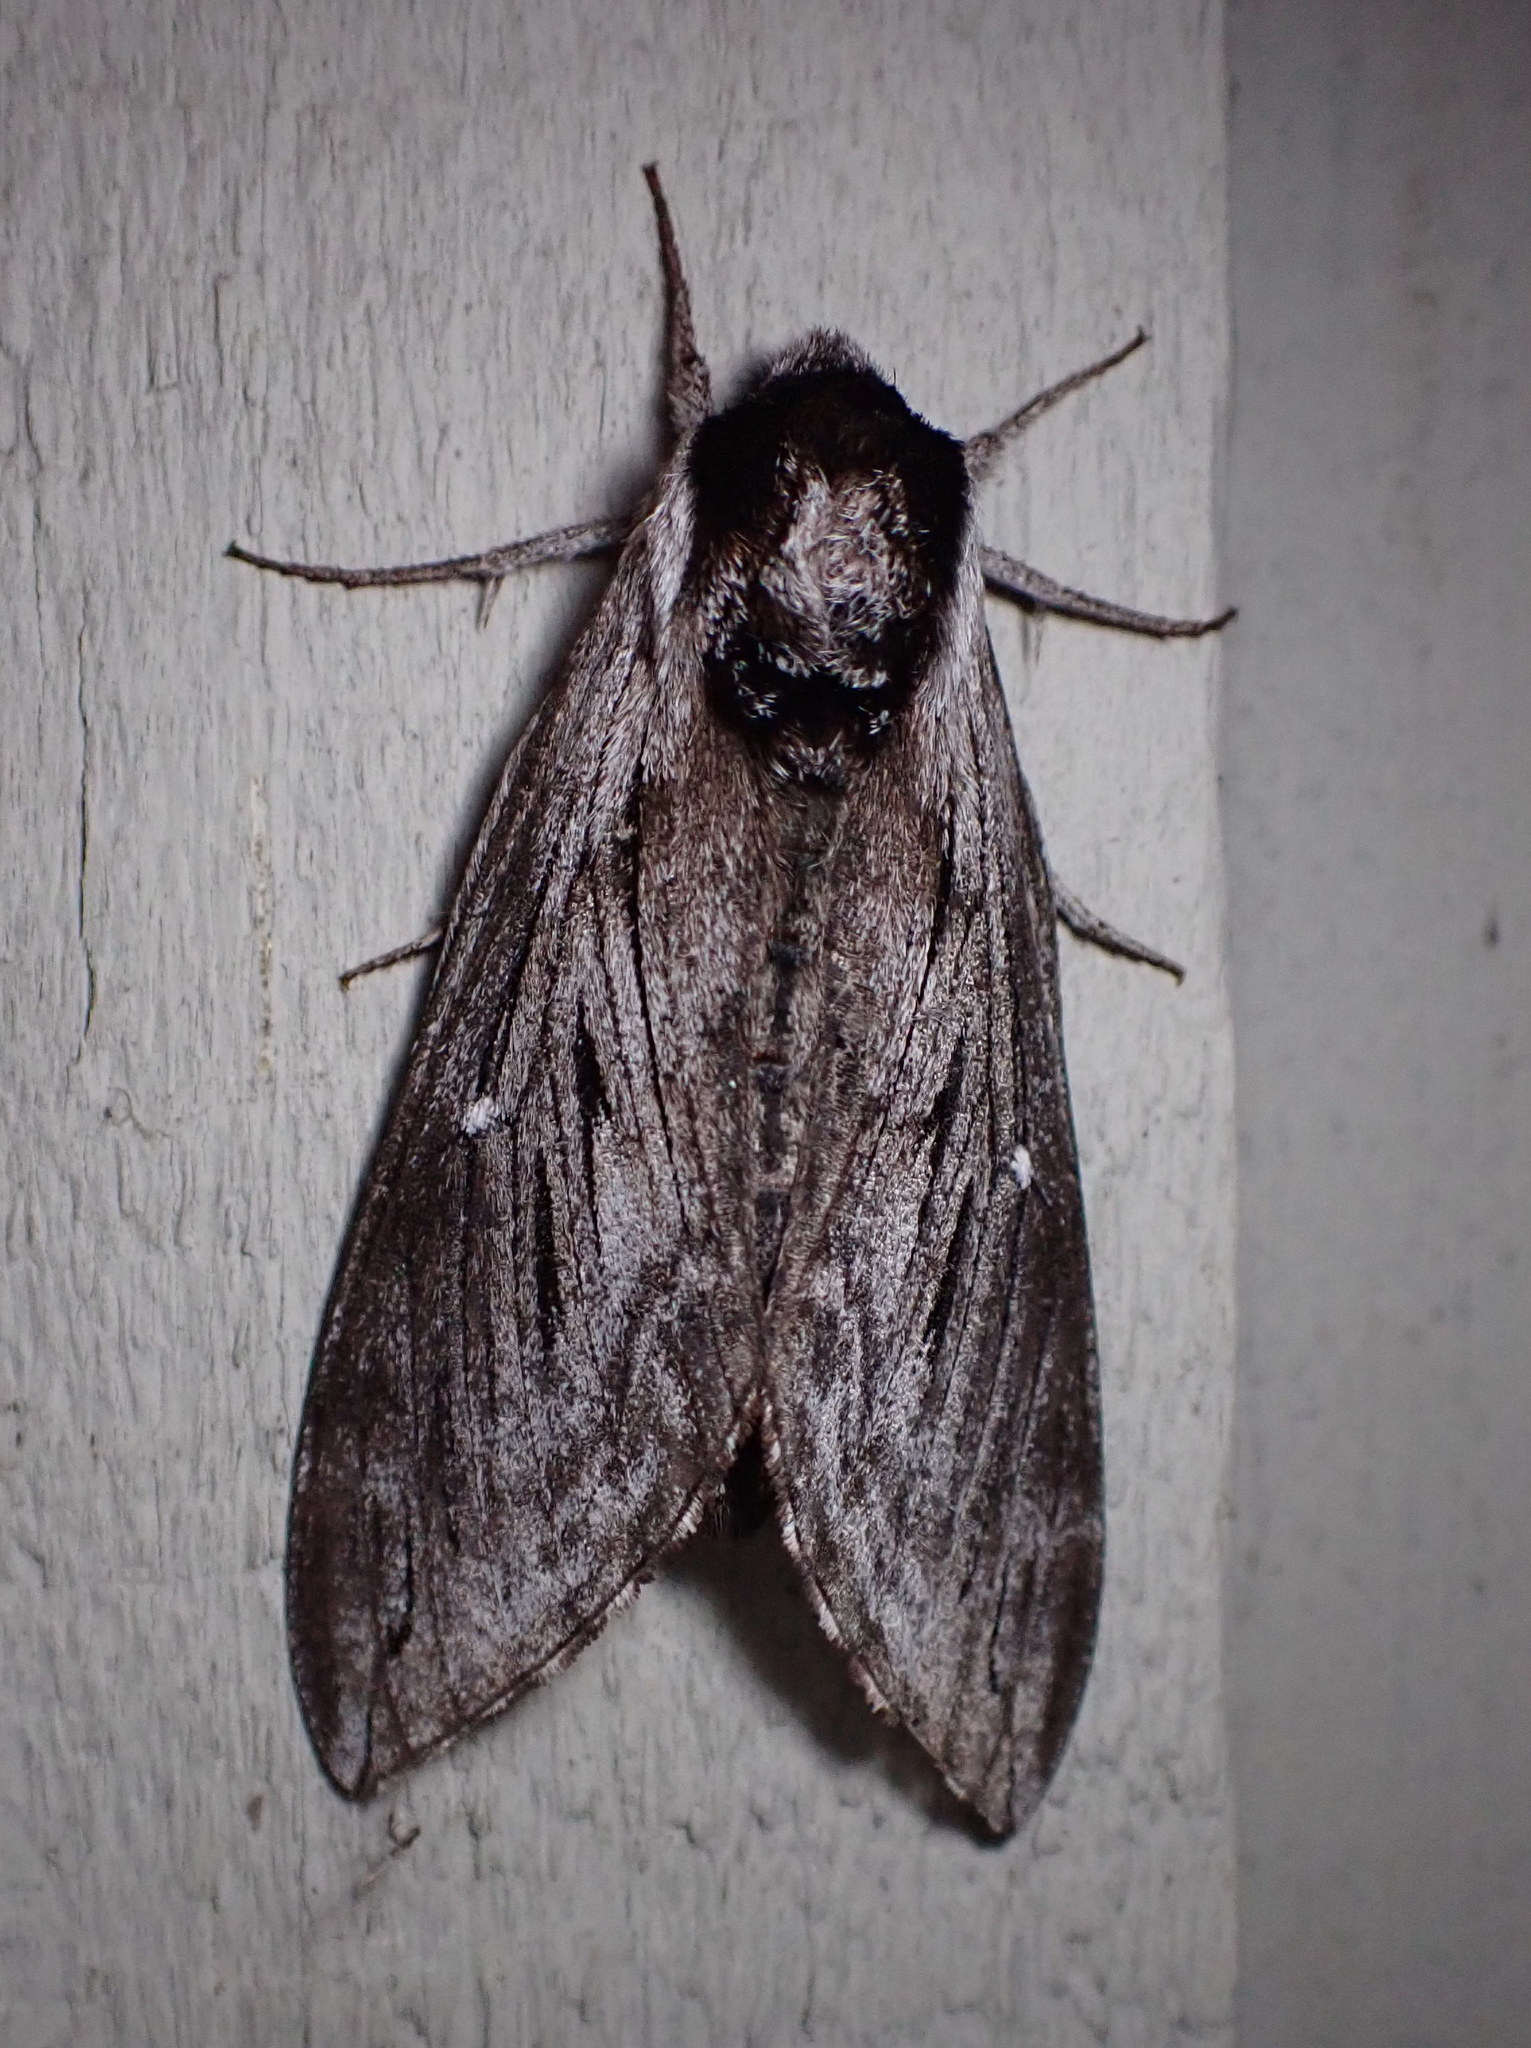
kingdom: Animalia
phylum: Arthropoda
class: Insecta
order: Lepidoptera
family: Sphingidae
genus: Sphinx
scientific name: Sphinx poecila
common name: Northern apple sphinx
